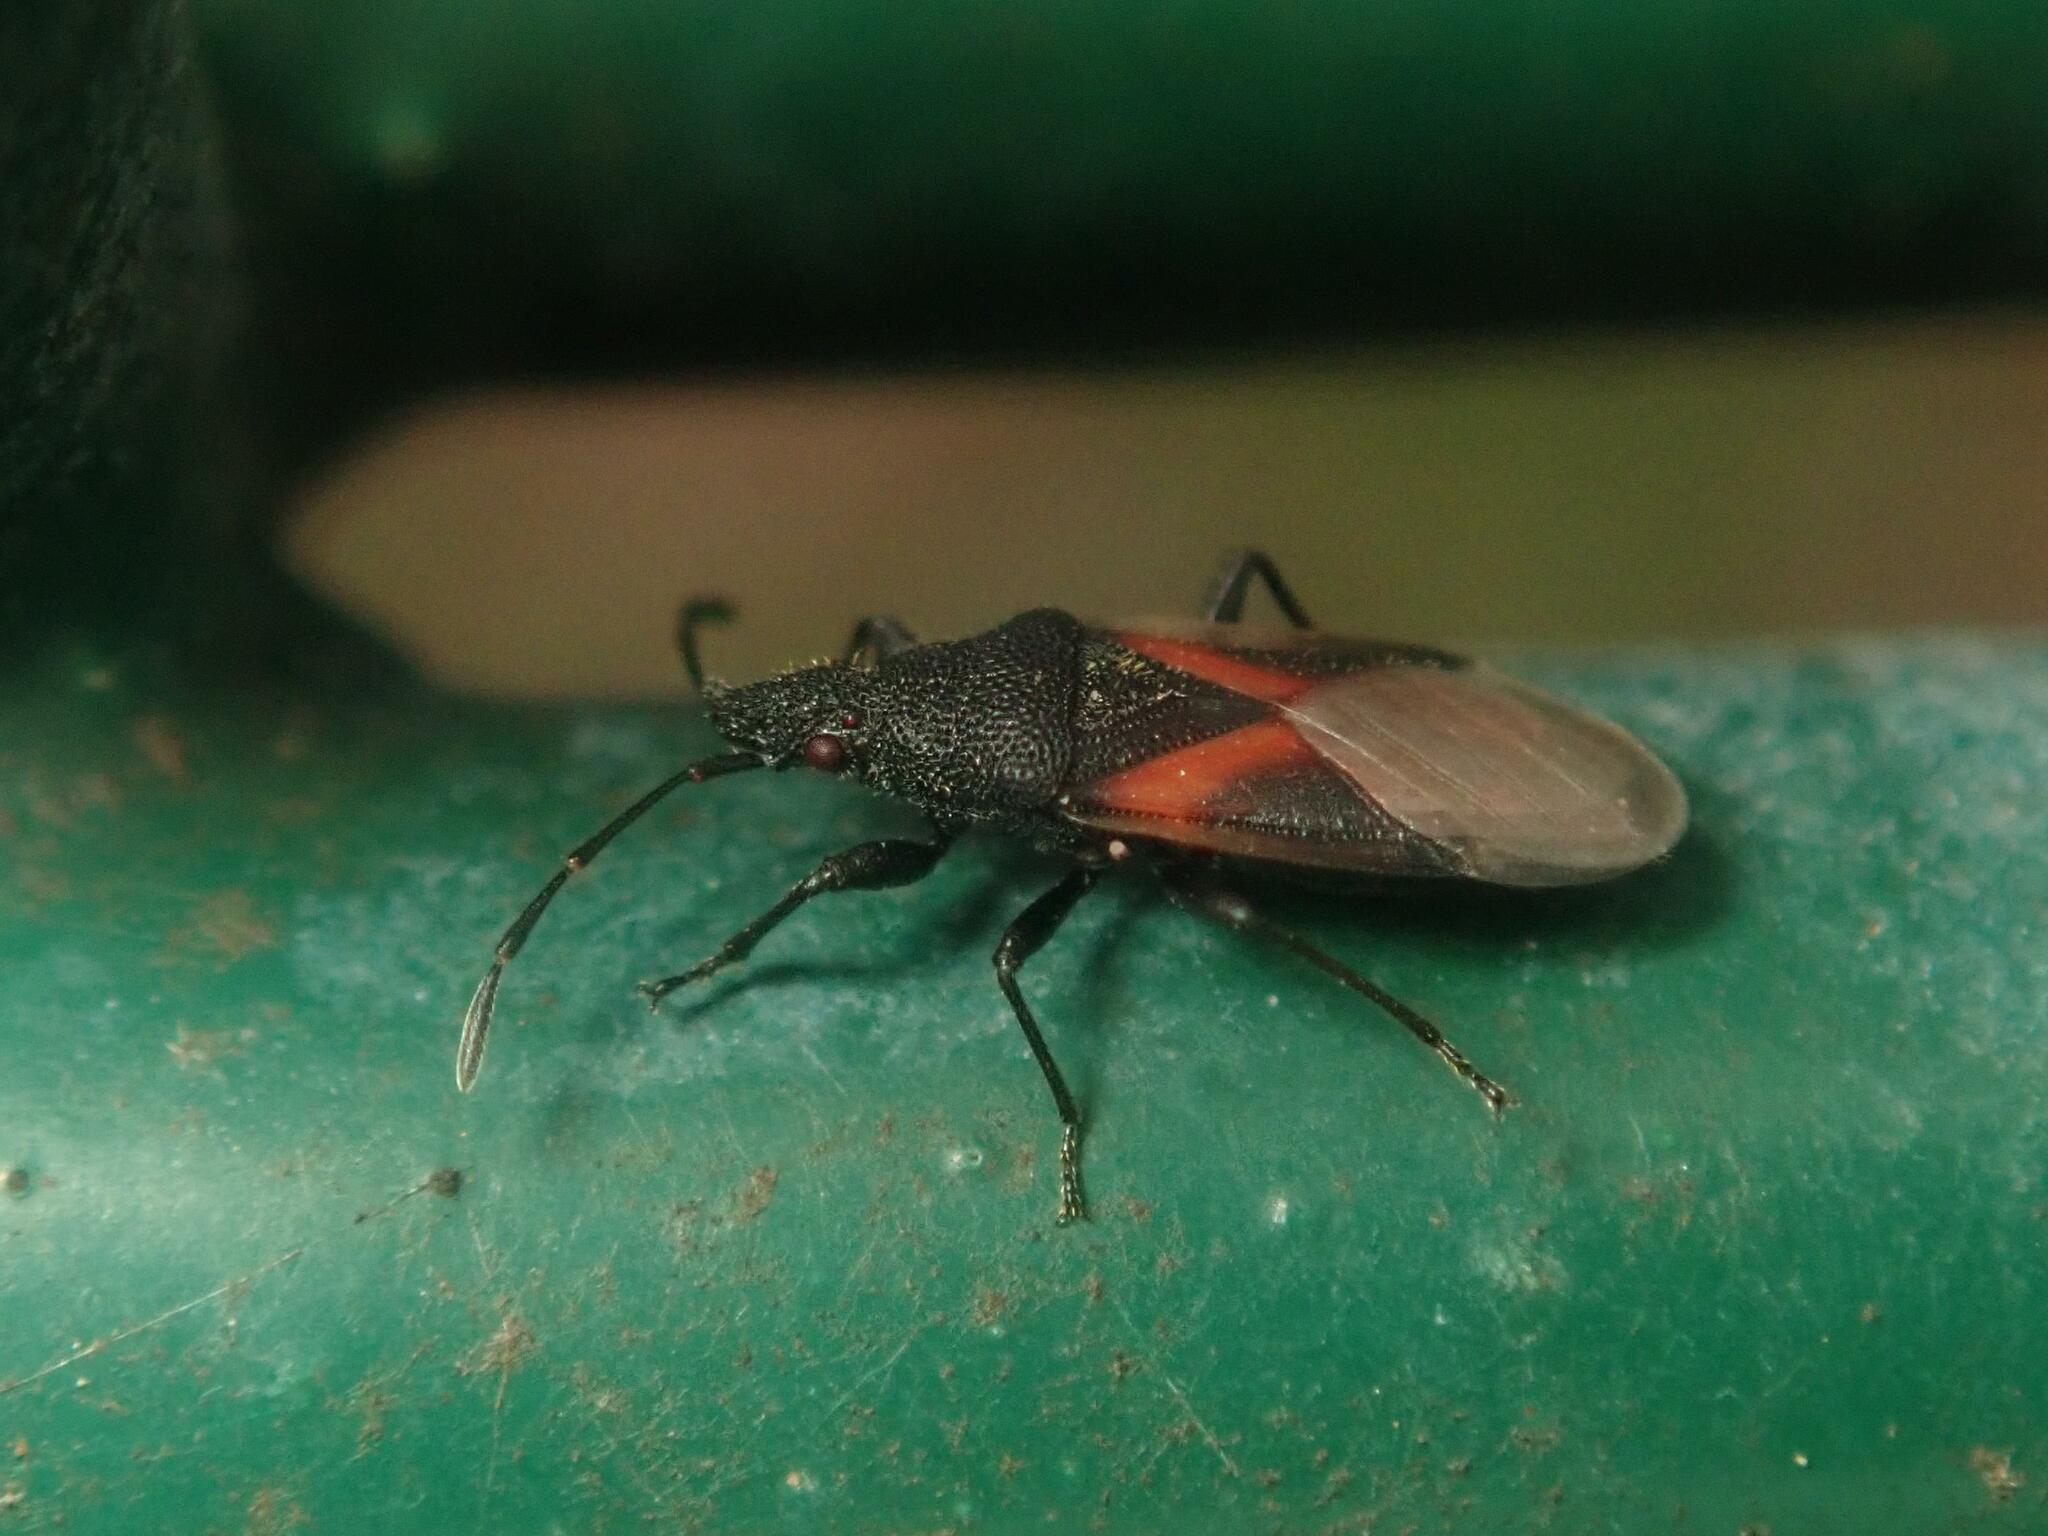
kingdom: Animalia
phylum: Arthropoda
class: Insecta
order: Hemiptera
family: Oxycarenidae
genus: Oxycarenus
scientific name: Oxycarenus lavaterae
